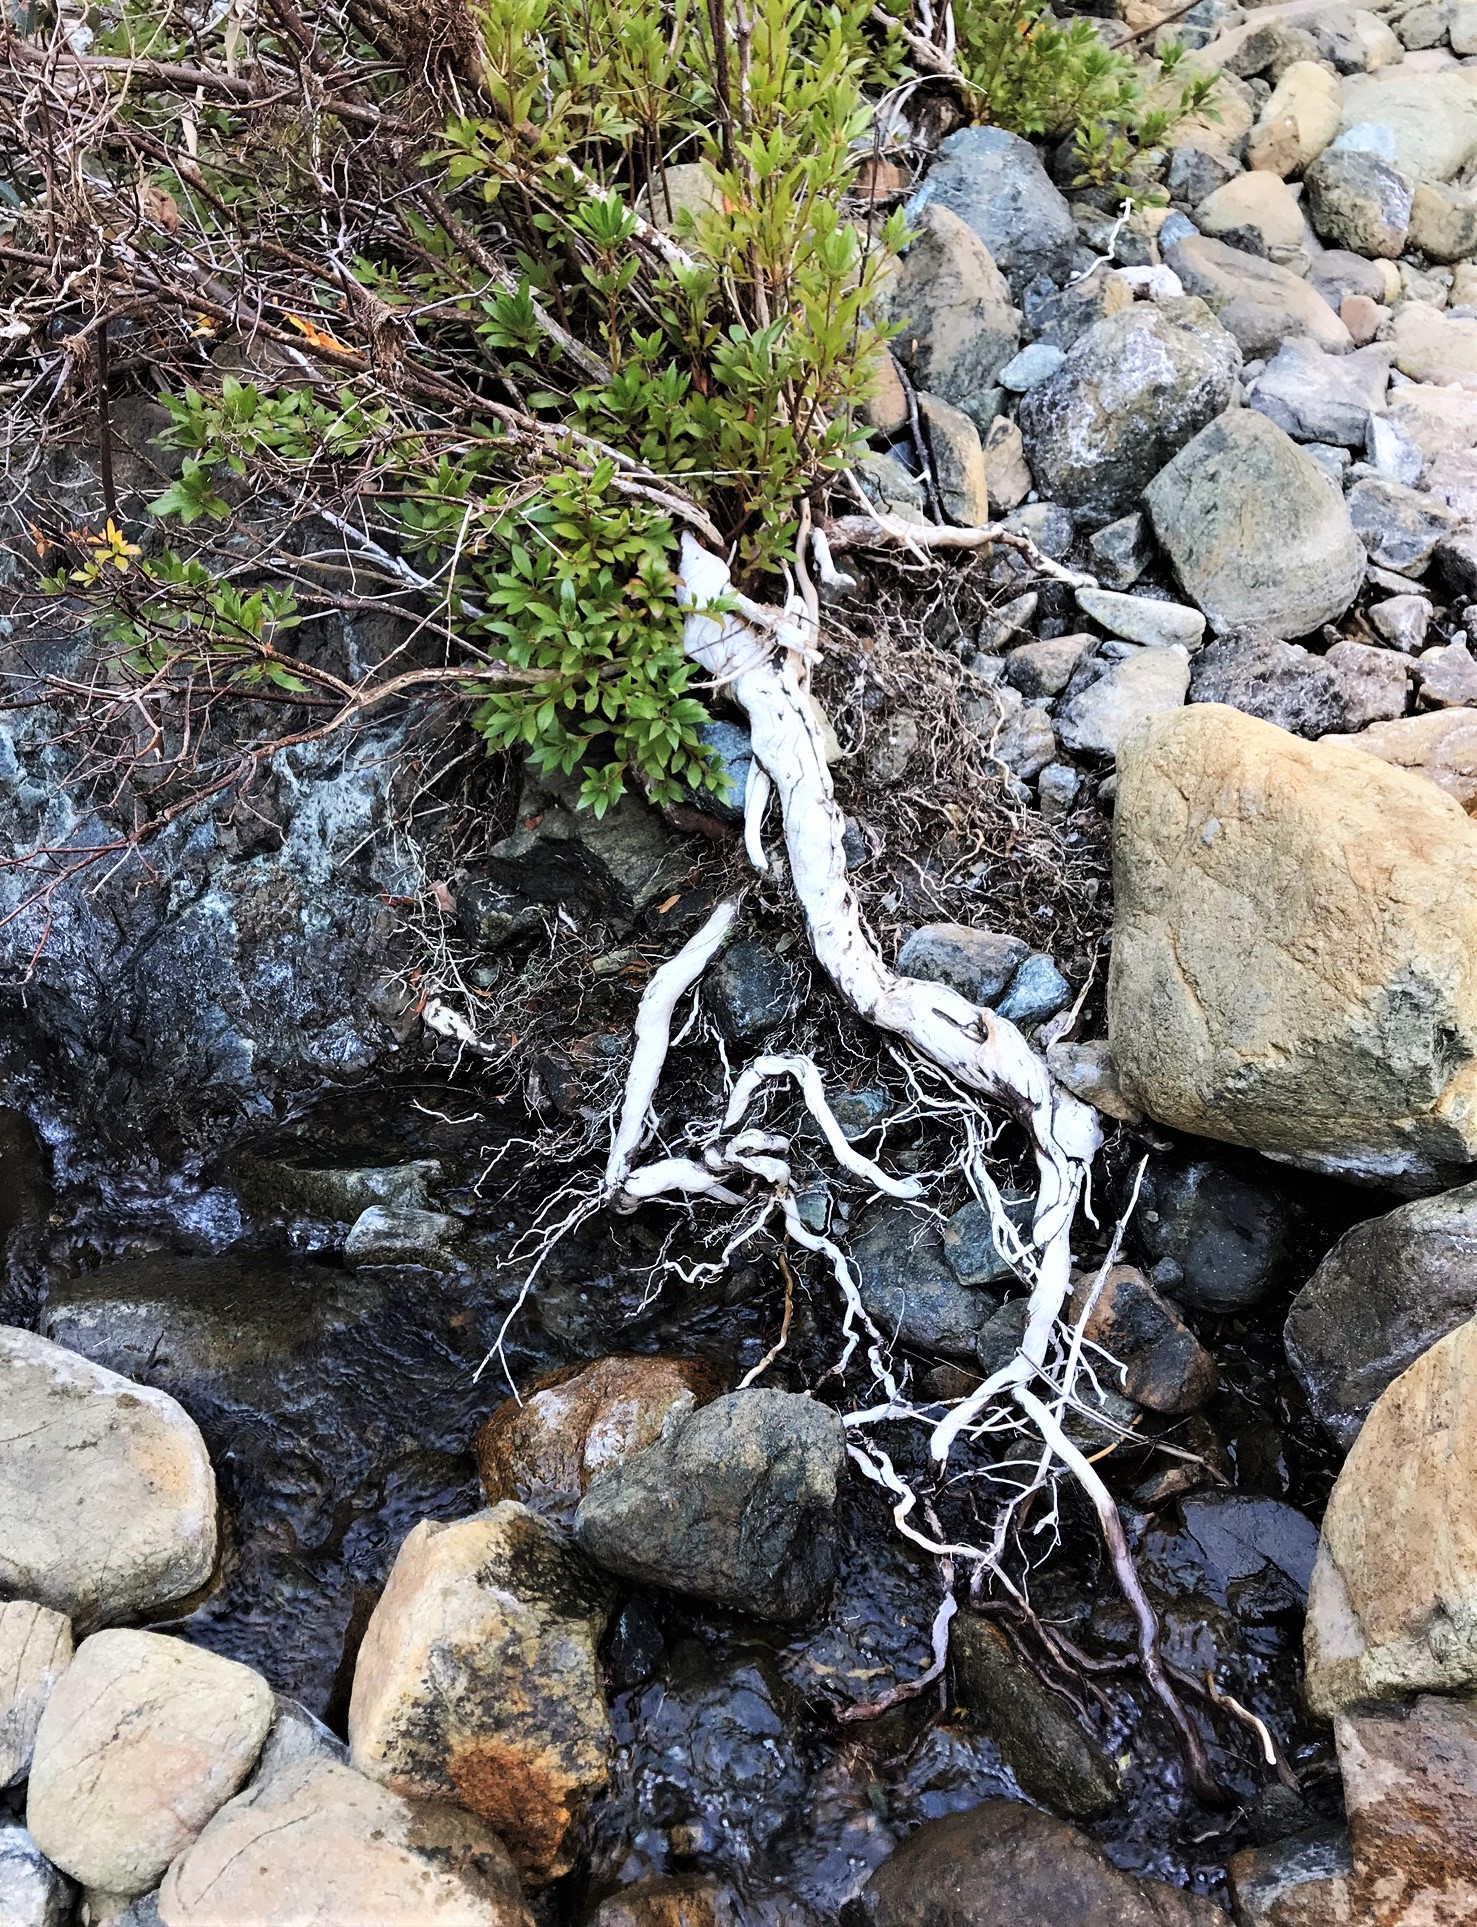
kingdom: Plantae
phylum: Tracheophyta
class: Magnoliopsida
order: Ericales
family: Ericaceae
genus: Rhododendron
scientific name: Rhododendron occidentale
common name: Western azalea
